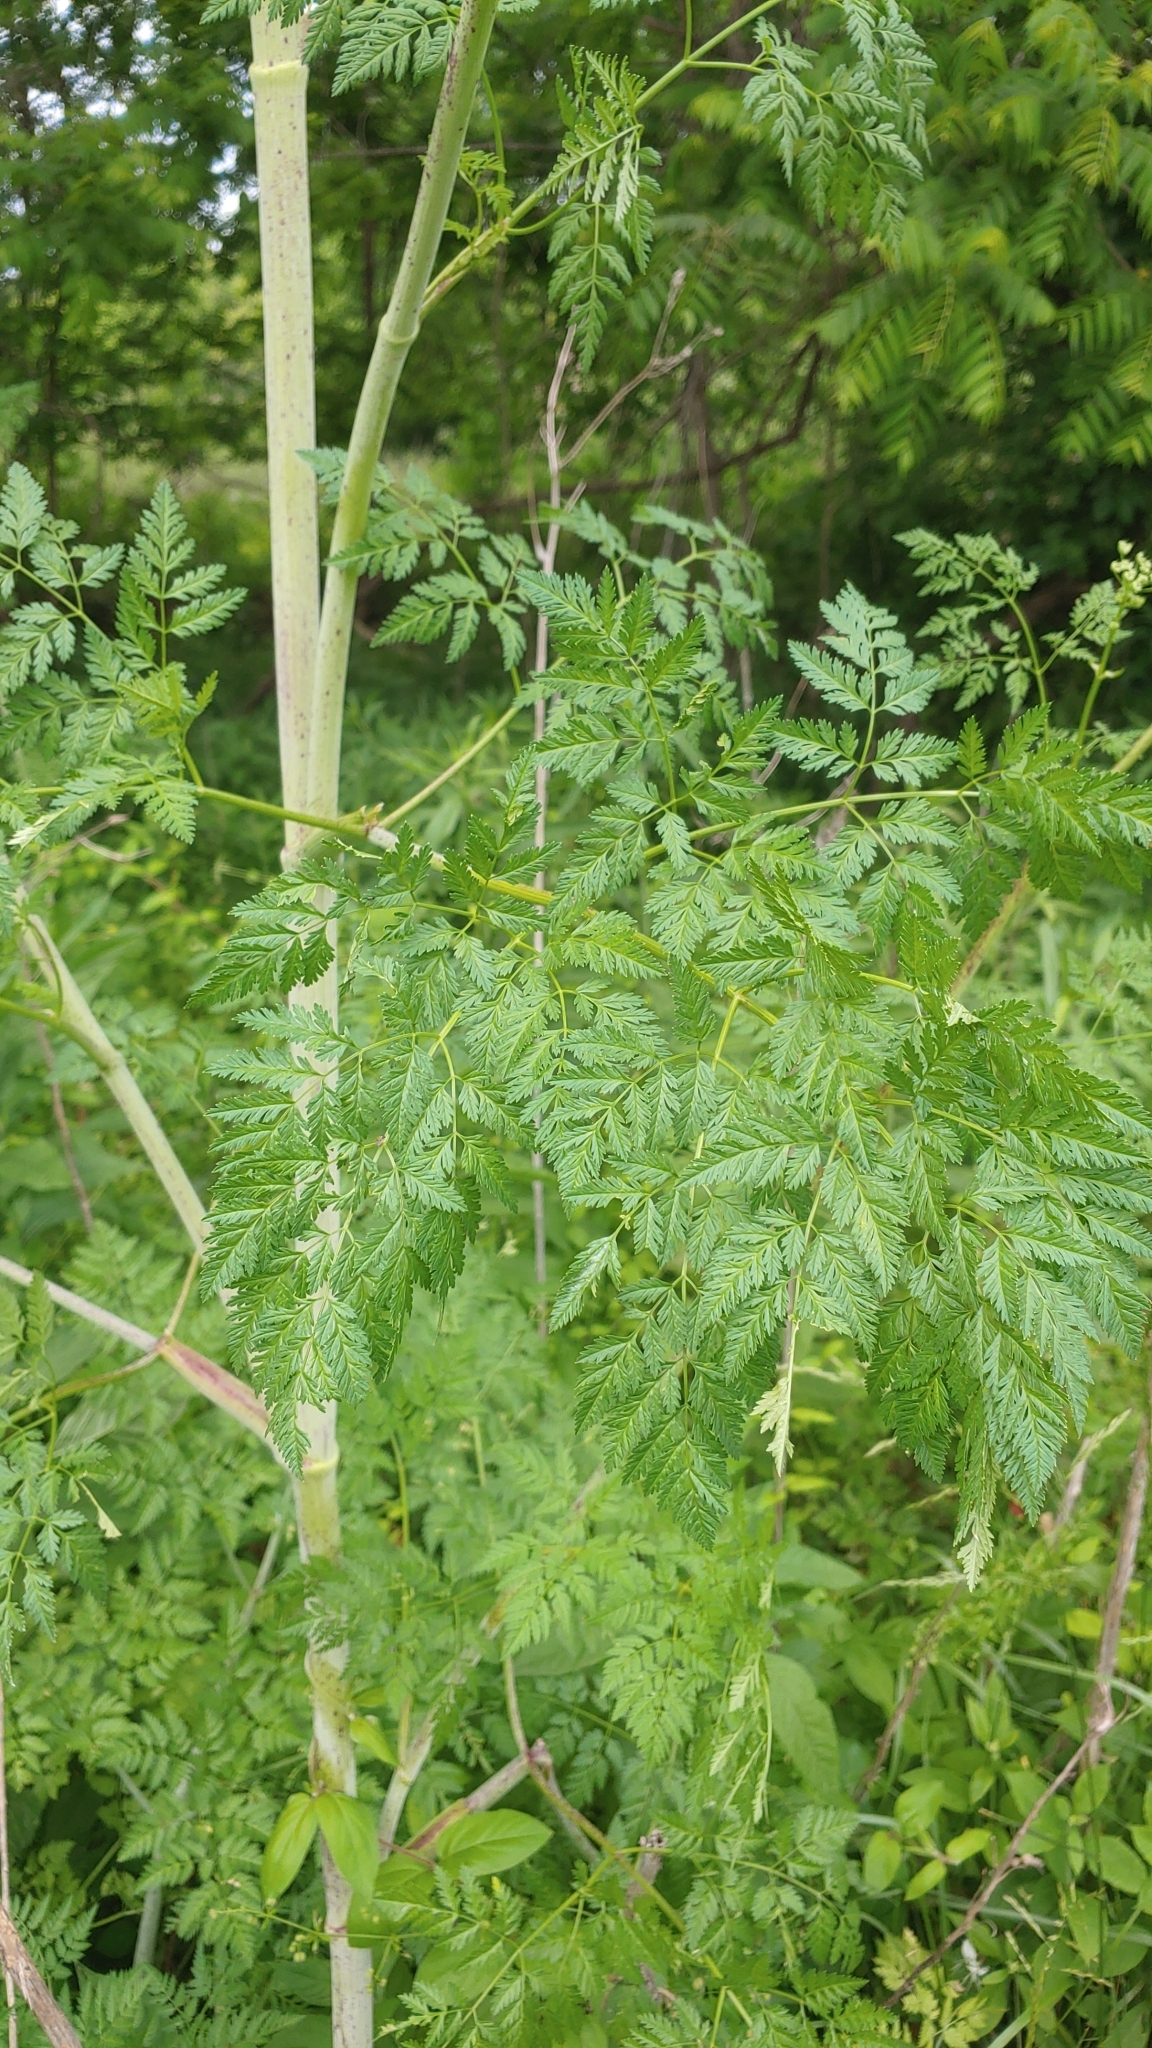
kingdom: Plantae
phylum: Tracheophyta
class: Magnoliopsida
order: Apiales
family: Apiaceae
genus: Conium
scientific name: Conium maculatum
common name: Hemlock
